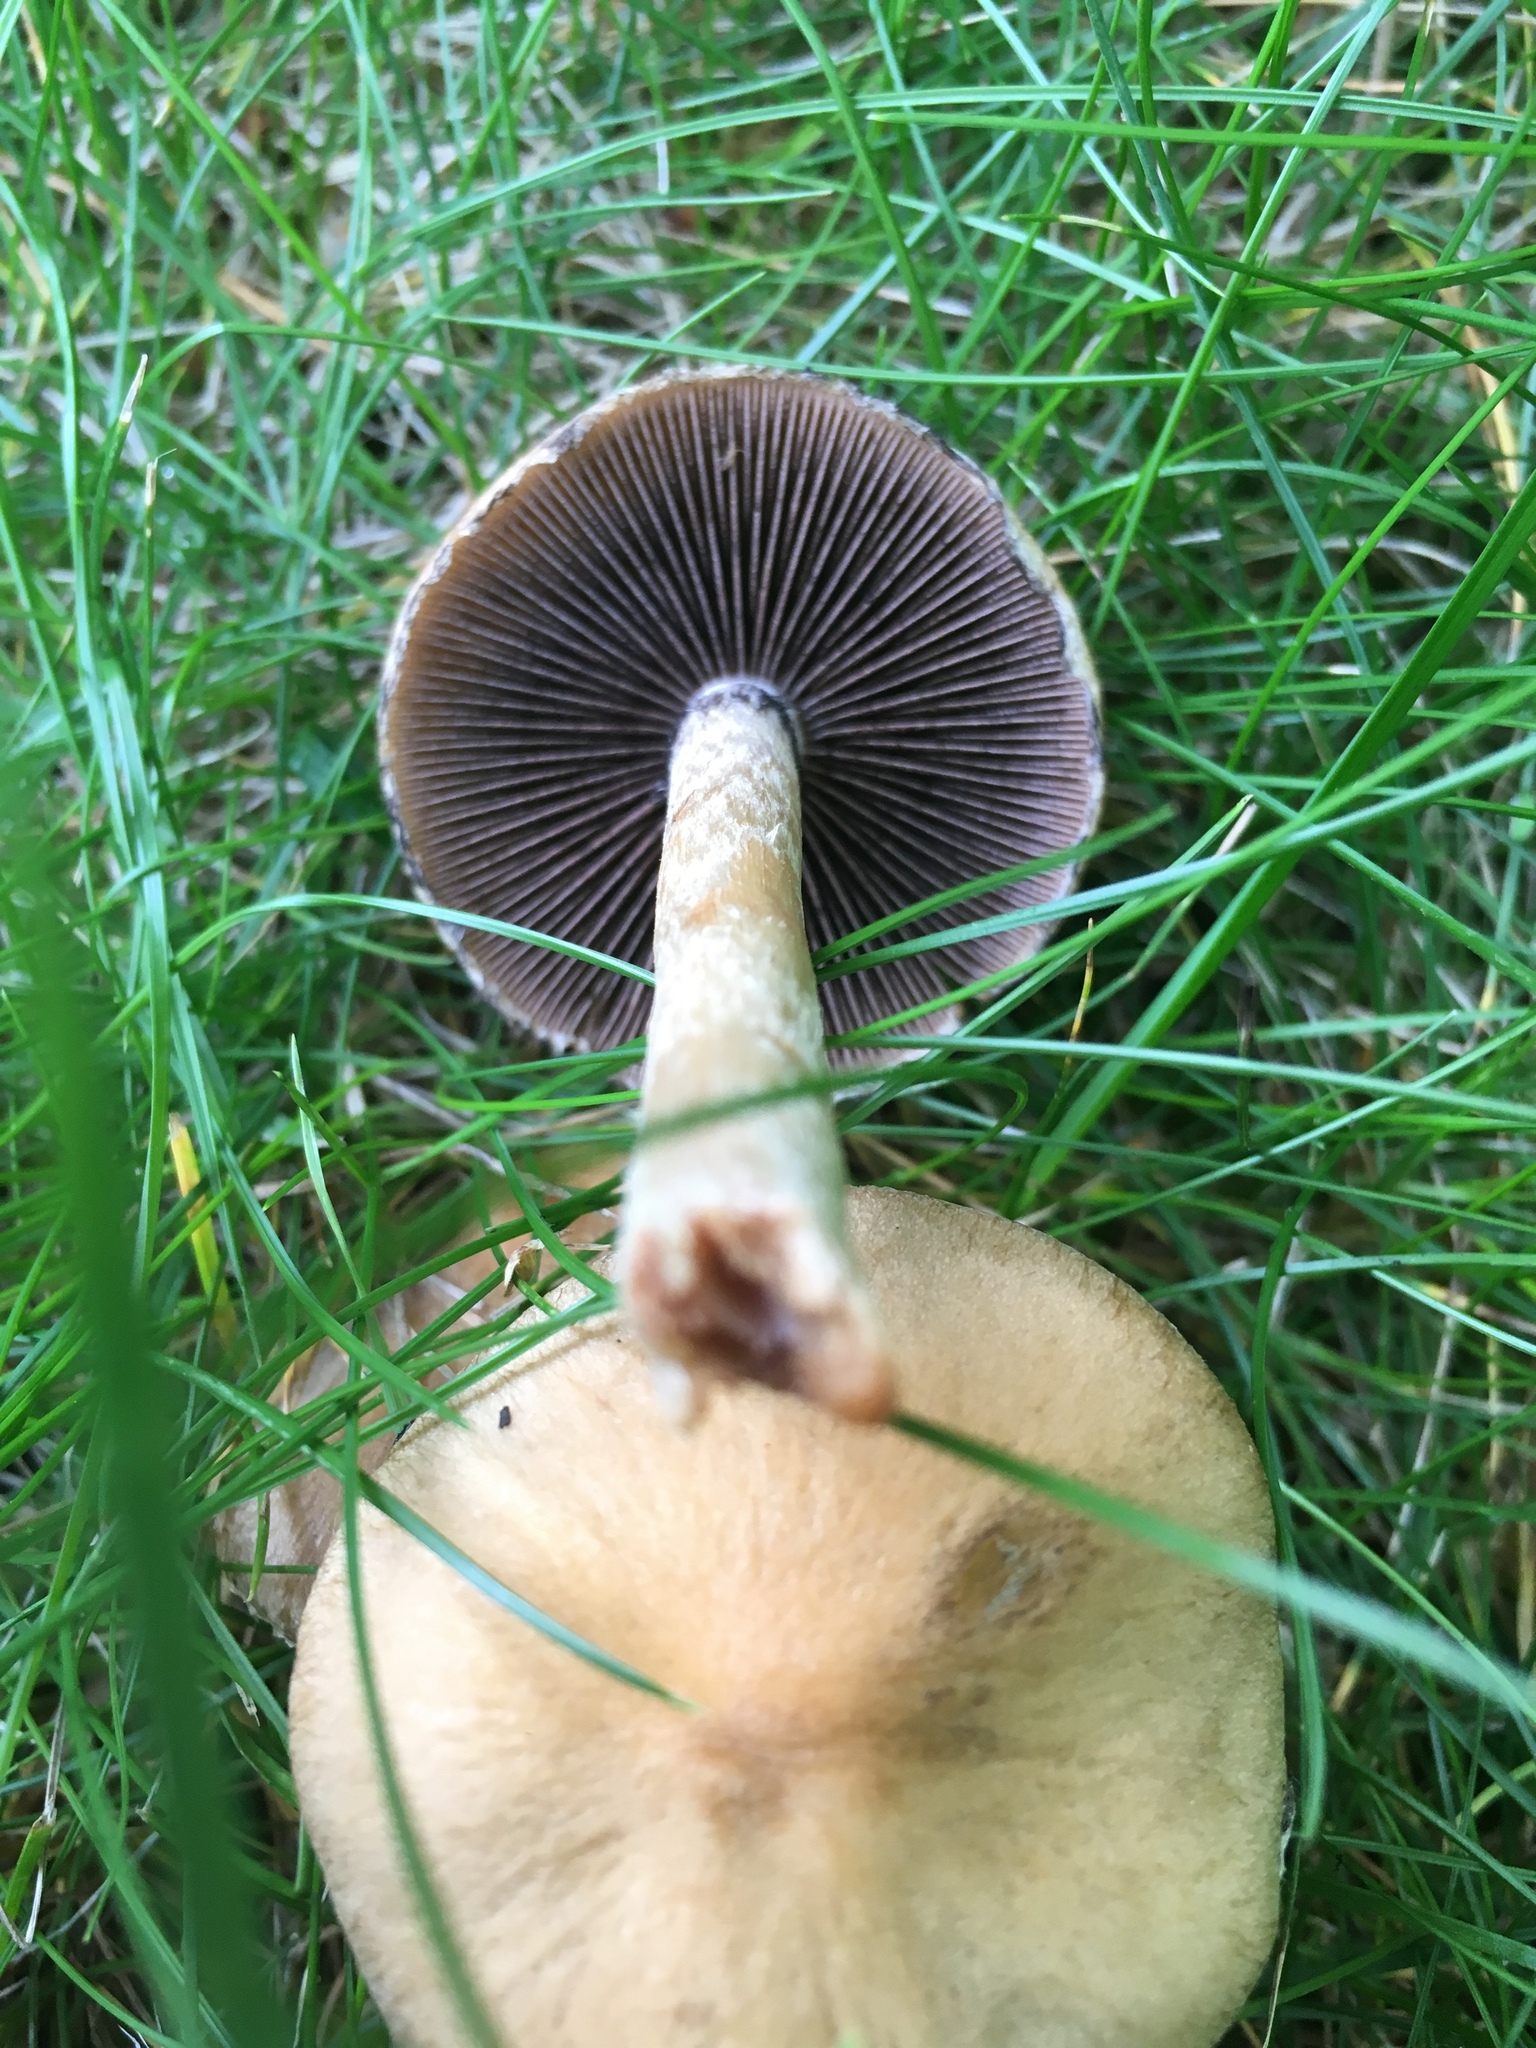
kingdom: Fungi
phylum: Basidiomycota
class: Agaricomycetes
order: Agaricales
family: Psathyrellaceae
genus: Lacrymaria
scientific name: Lacrymaria lacrymabunda
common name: Weeping widow
